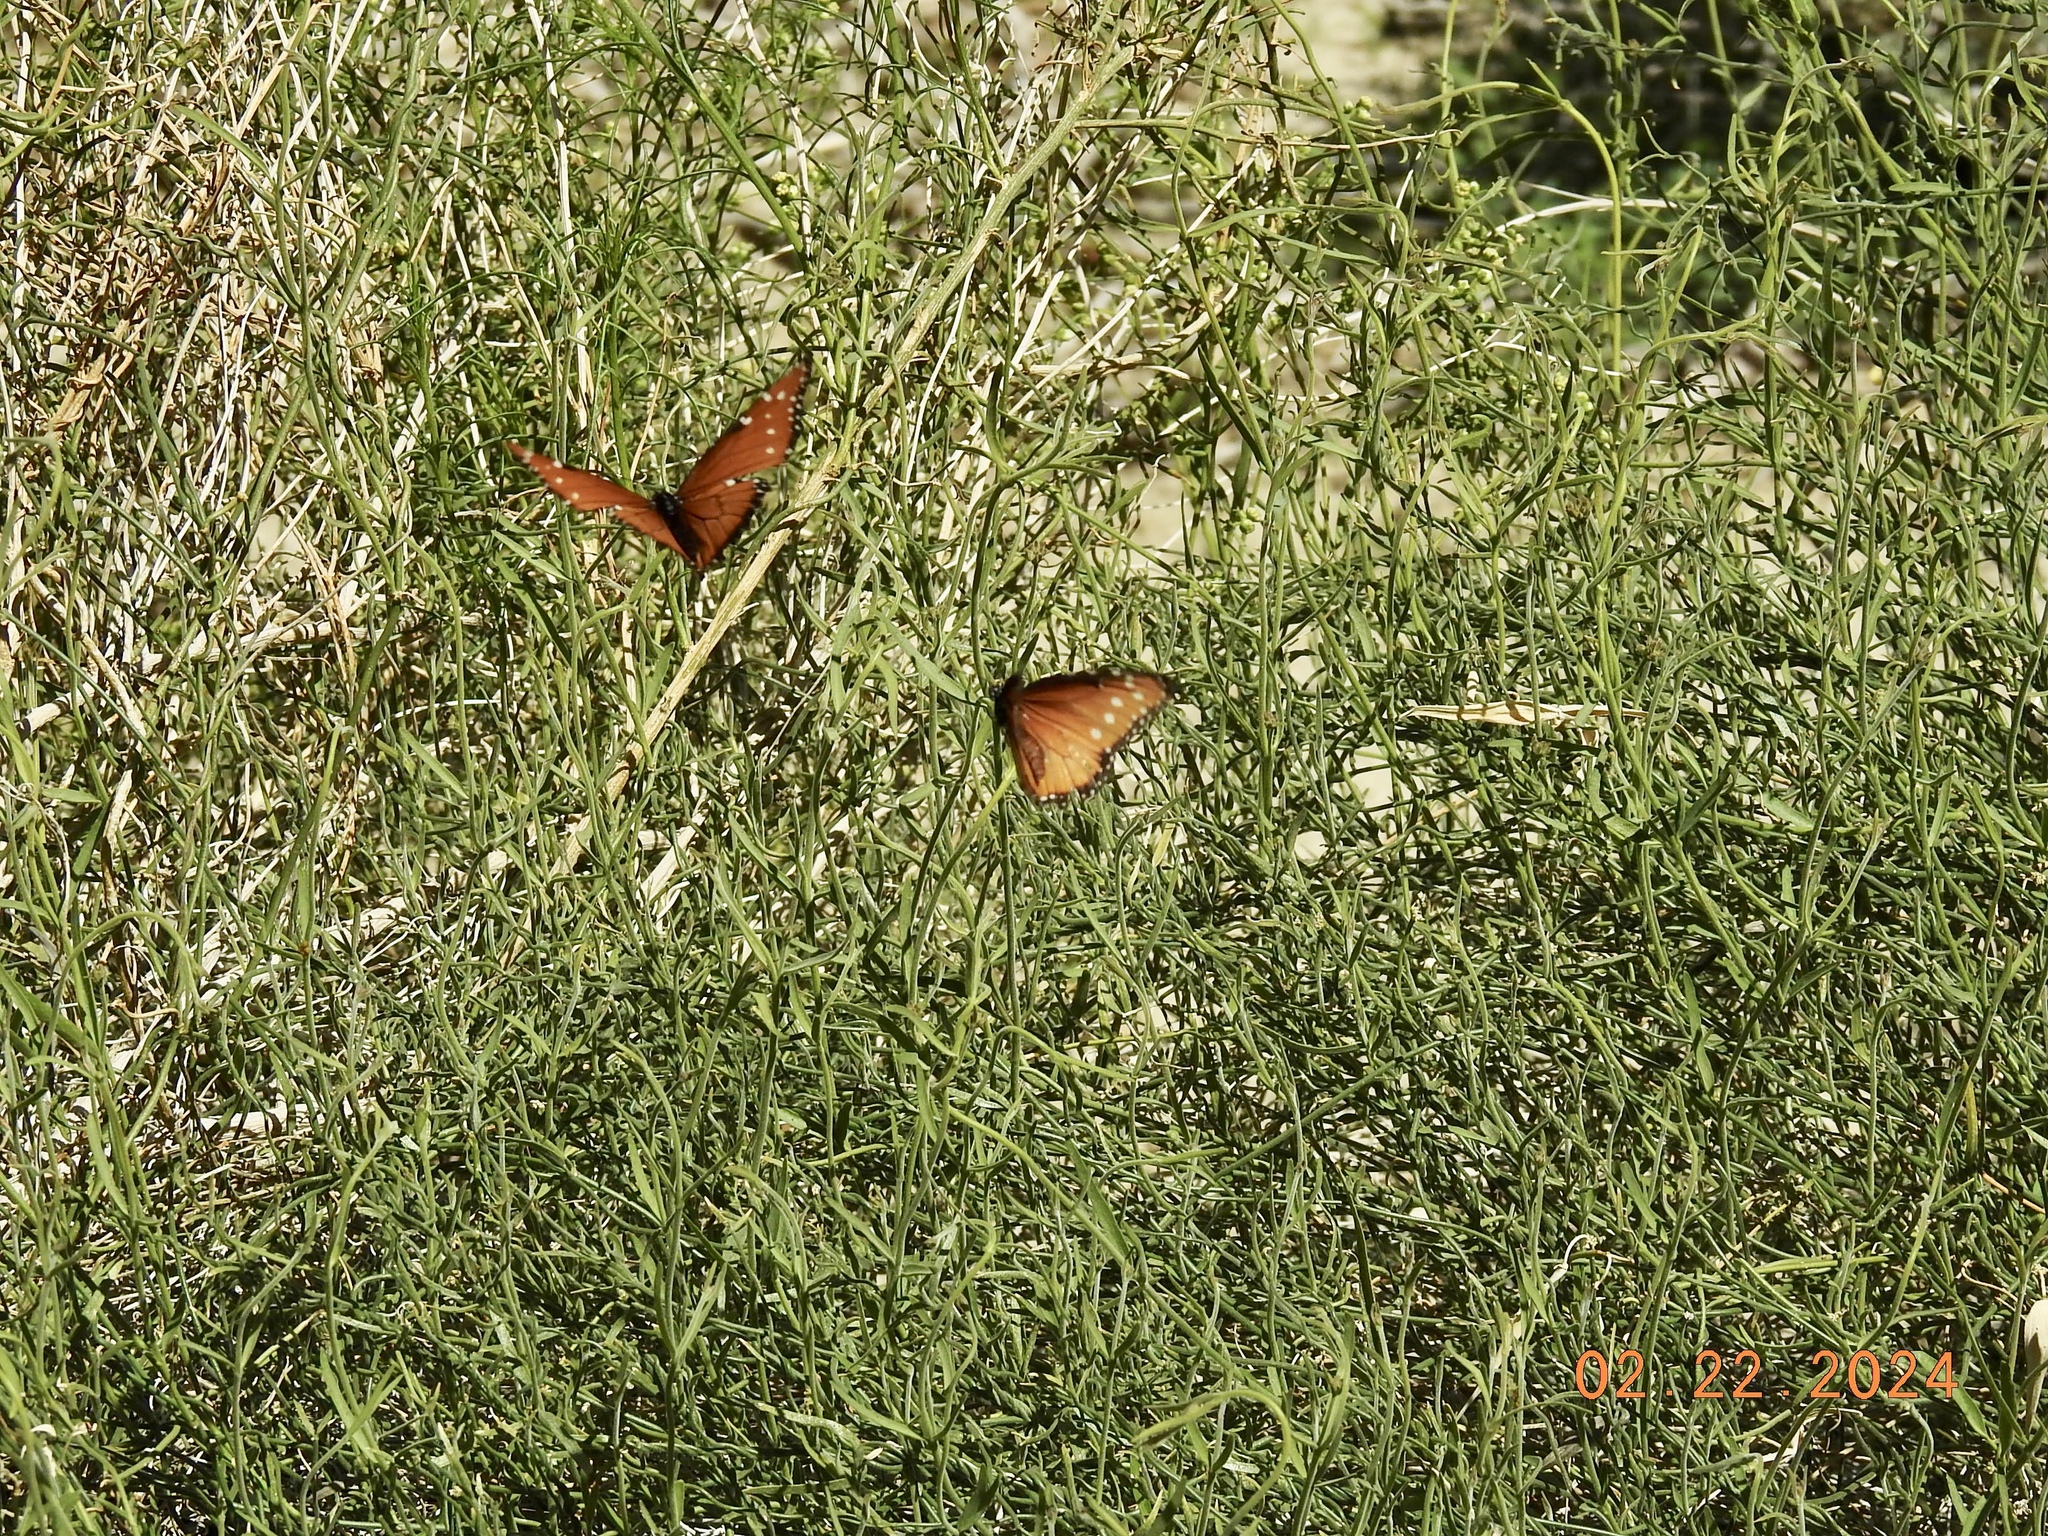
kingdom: Animalia
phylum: Arthropoda
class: Insecta
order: Lepidoptera
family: Nymphalidae
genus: Danaus
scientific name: Danaus gilippus
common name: Queen
